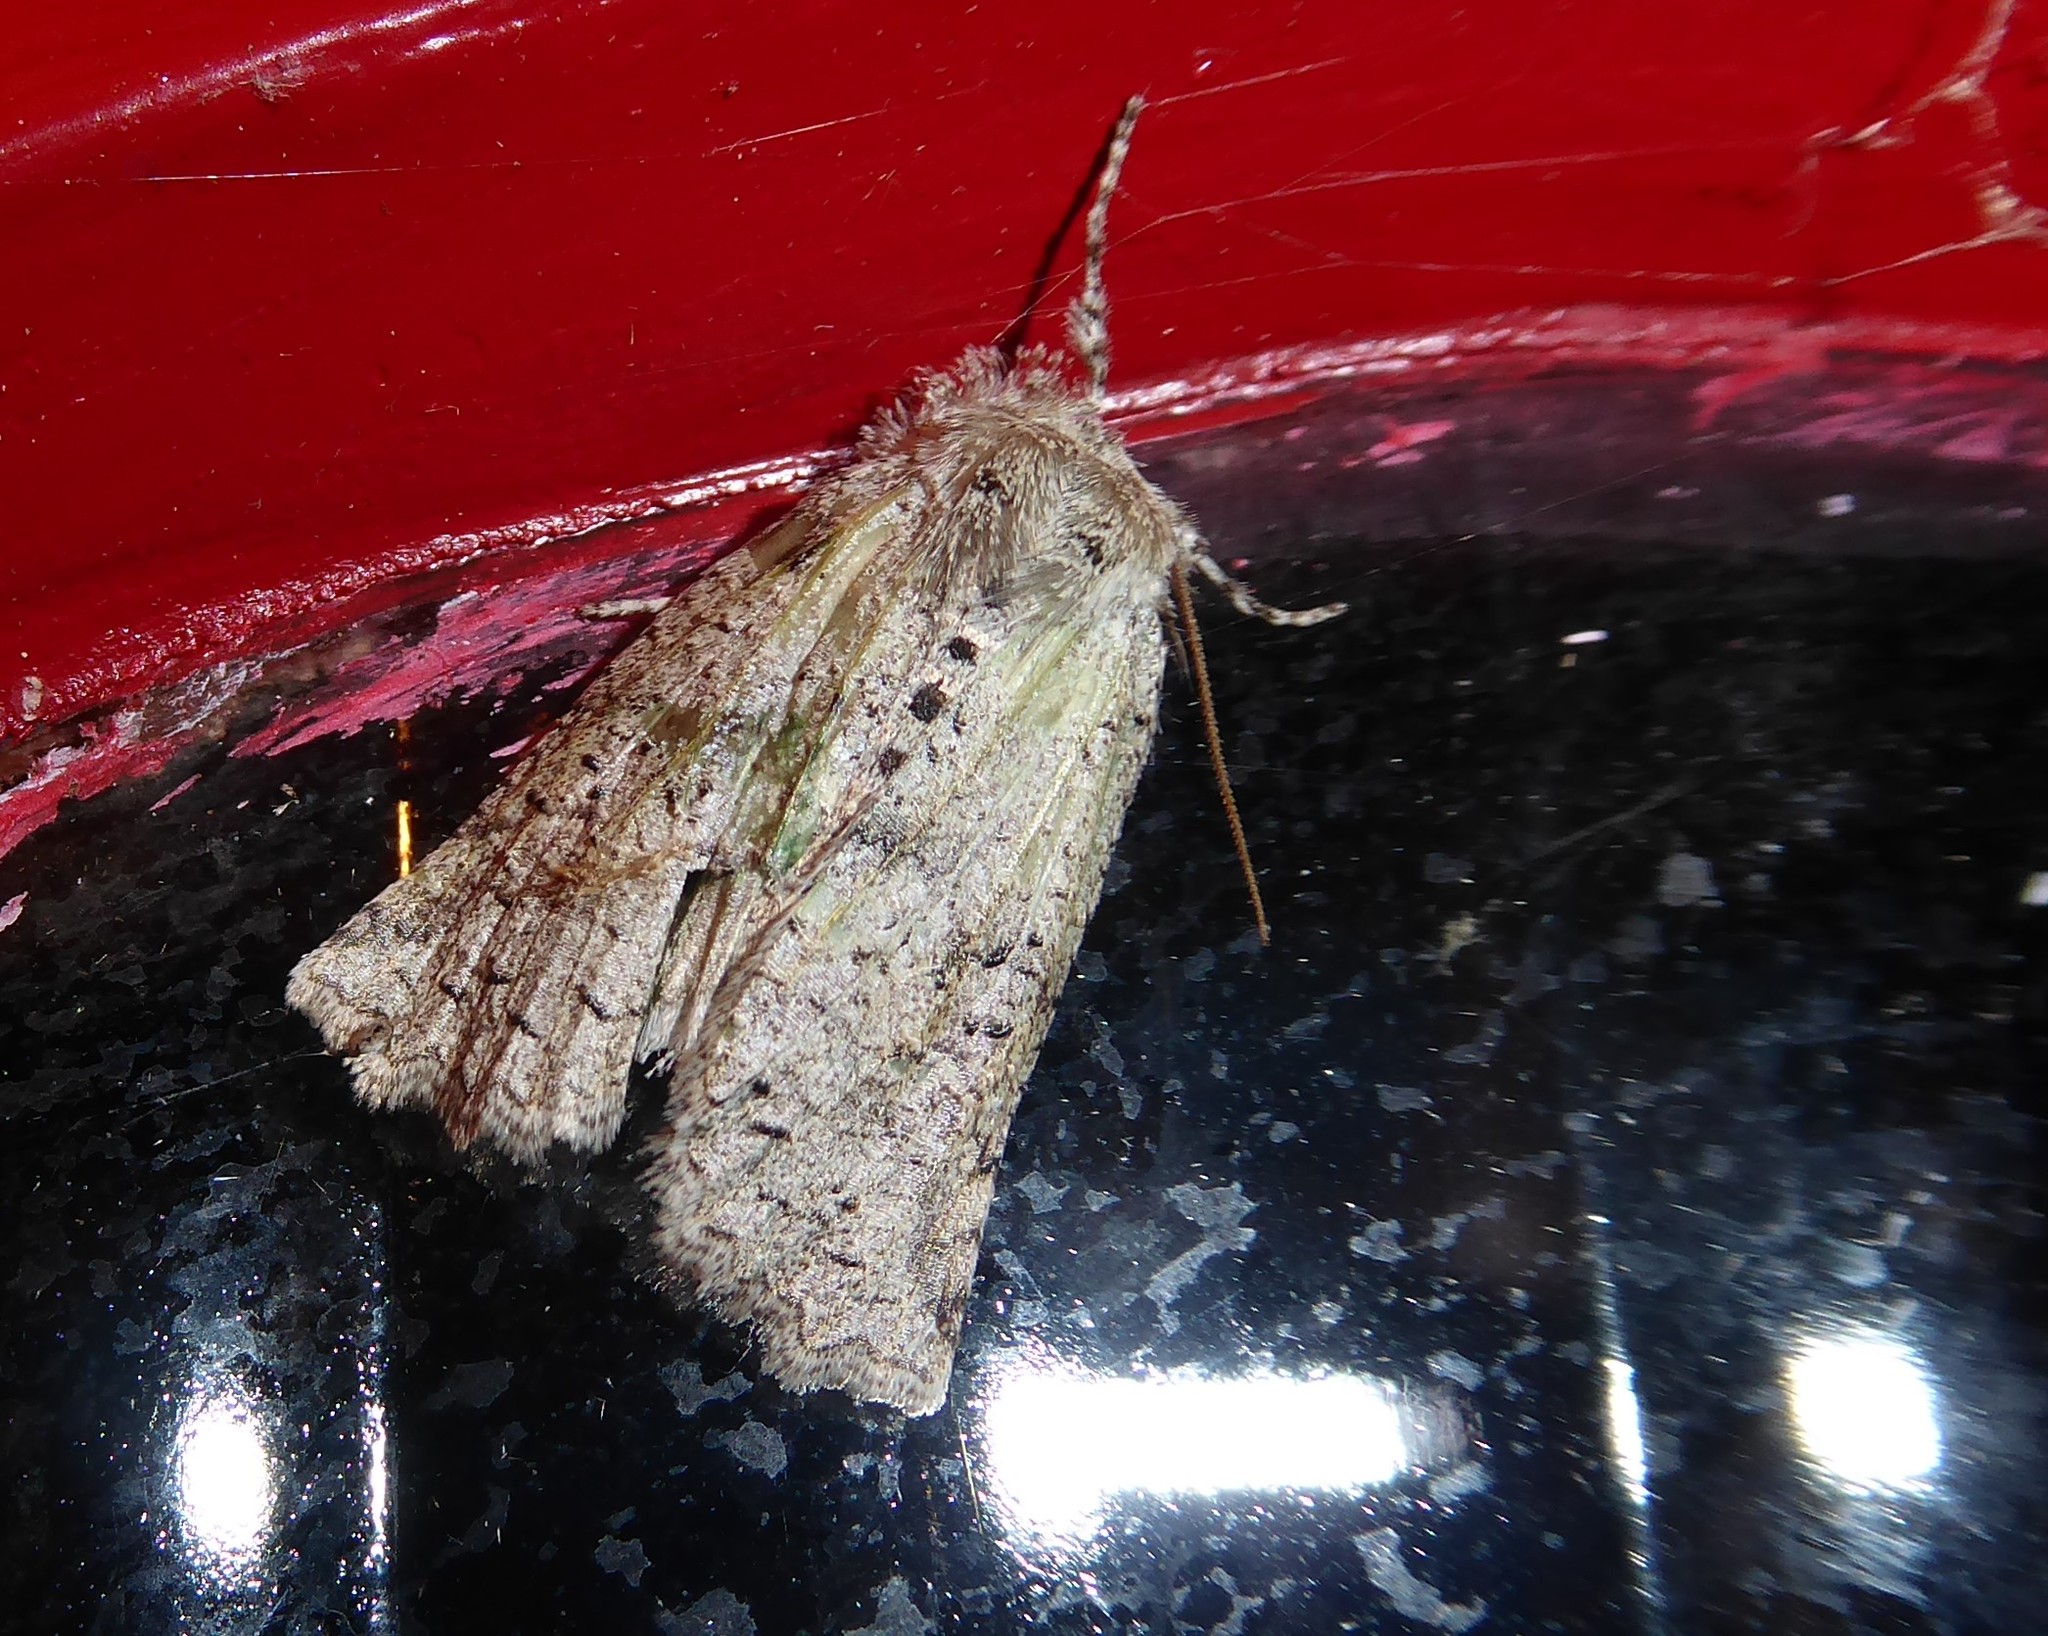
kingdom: Animalia
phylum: Arthropoda
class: Insecta
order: Lepidoptera
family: Geometridae
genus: Declana
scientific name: Declana floccosa
